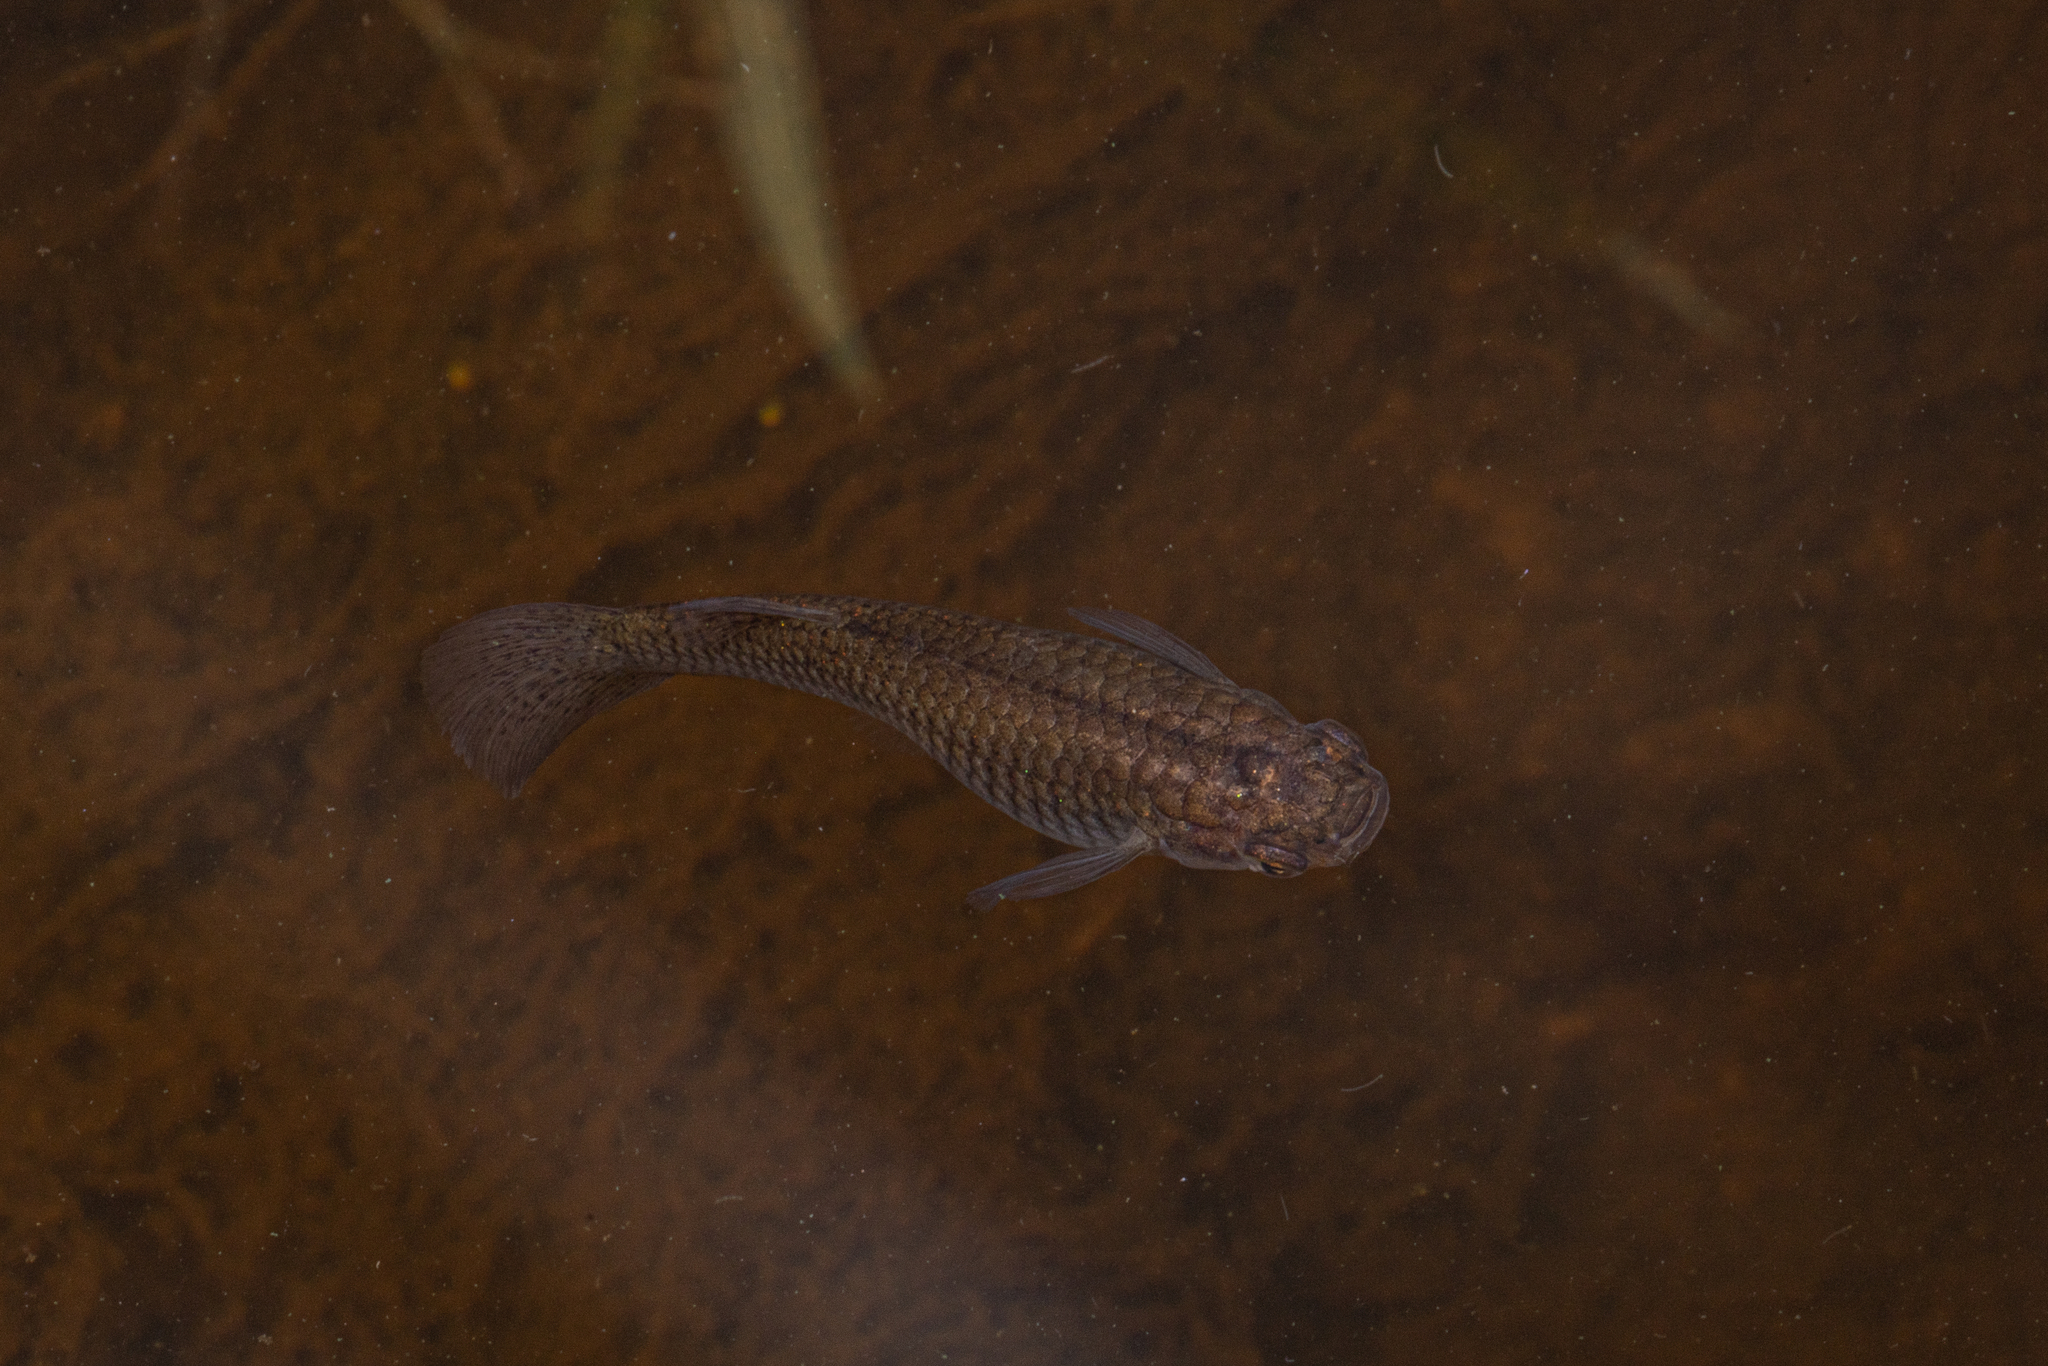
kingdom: Animalia
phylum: Chordata
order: Cyprinodontiformes
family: Poeciliidae
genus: Gambusia
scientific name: Gambusia affinis
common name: Mosquitofish
